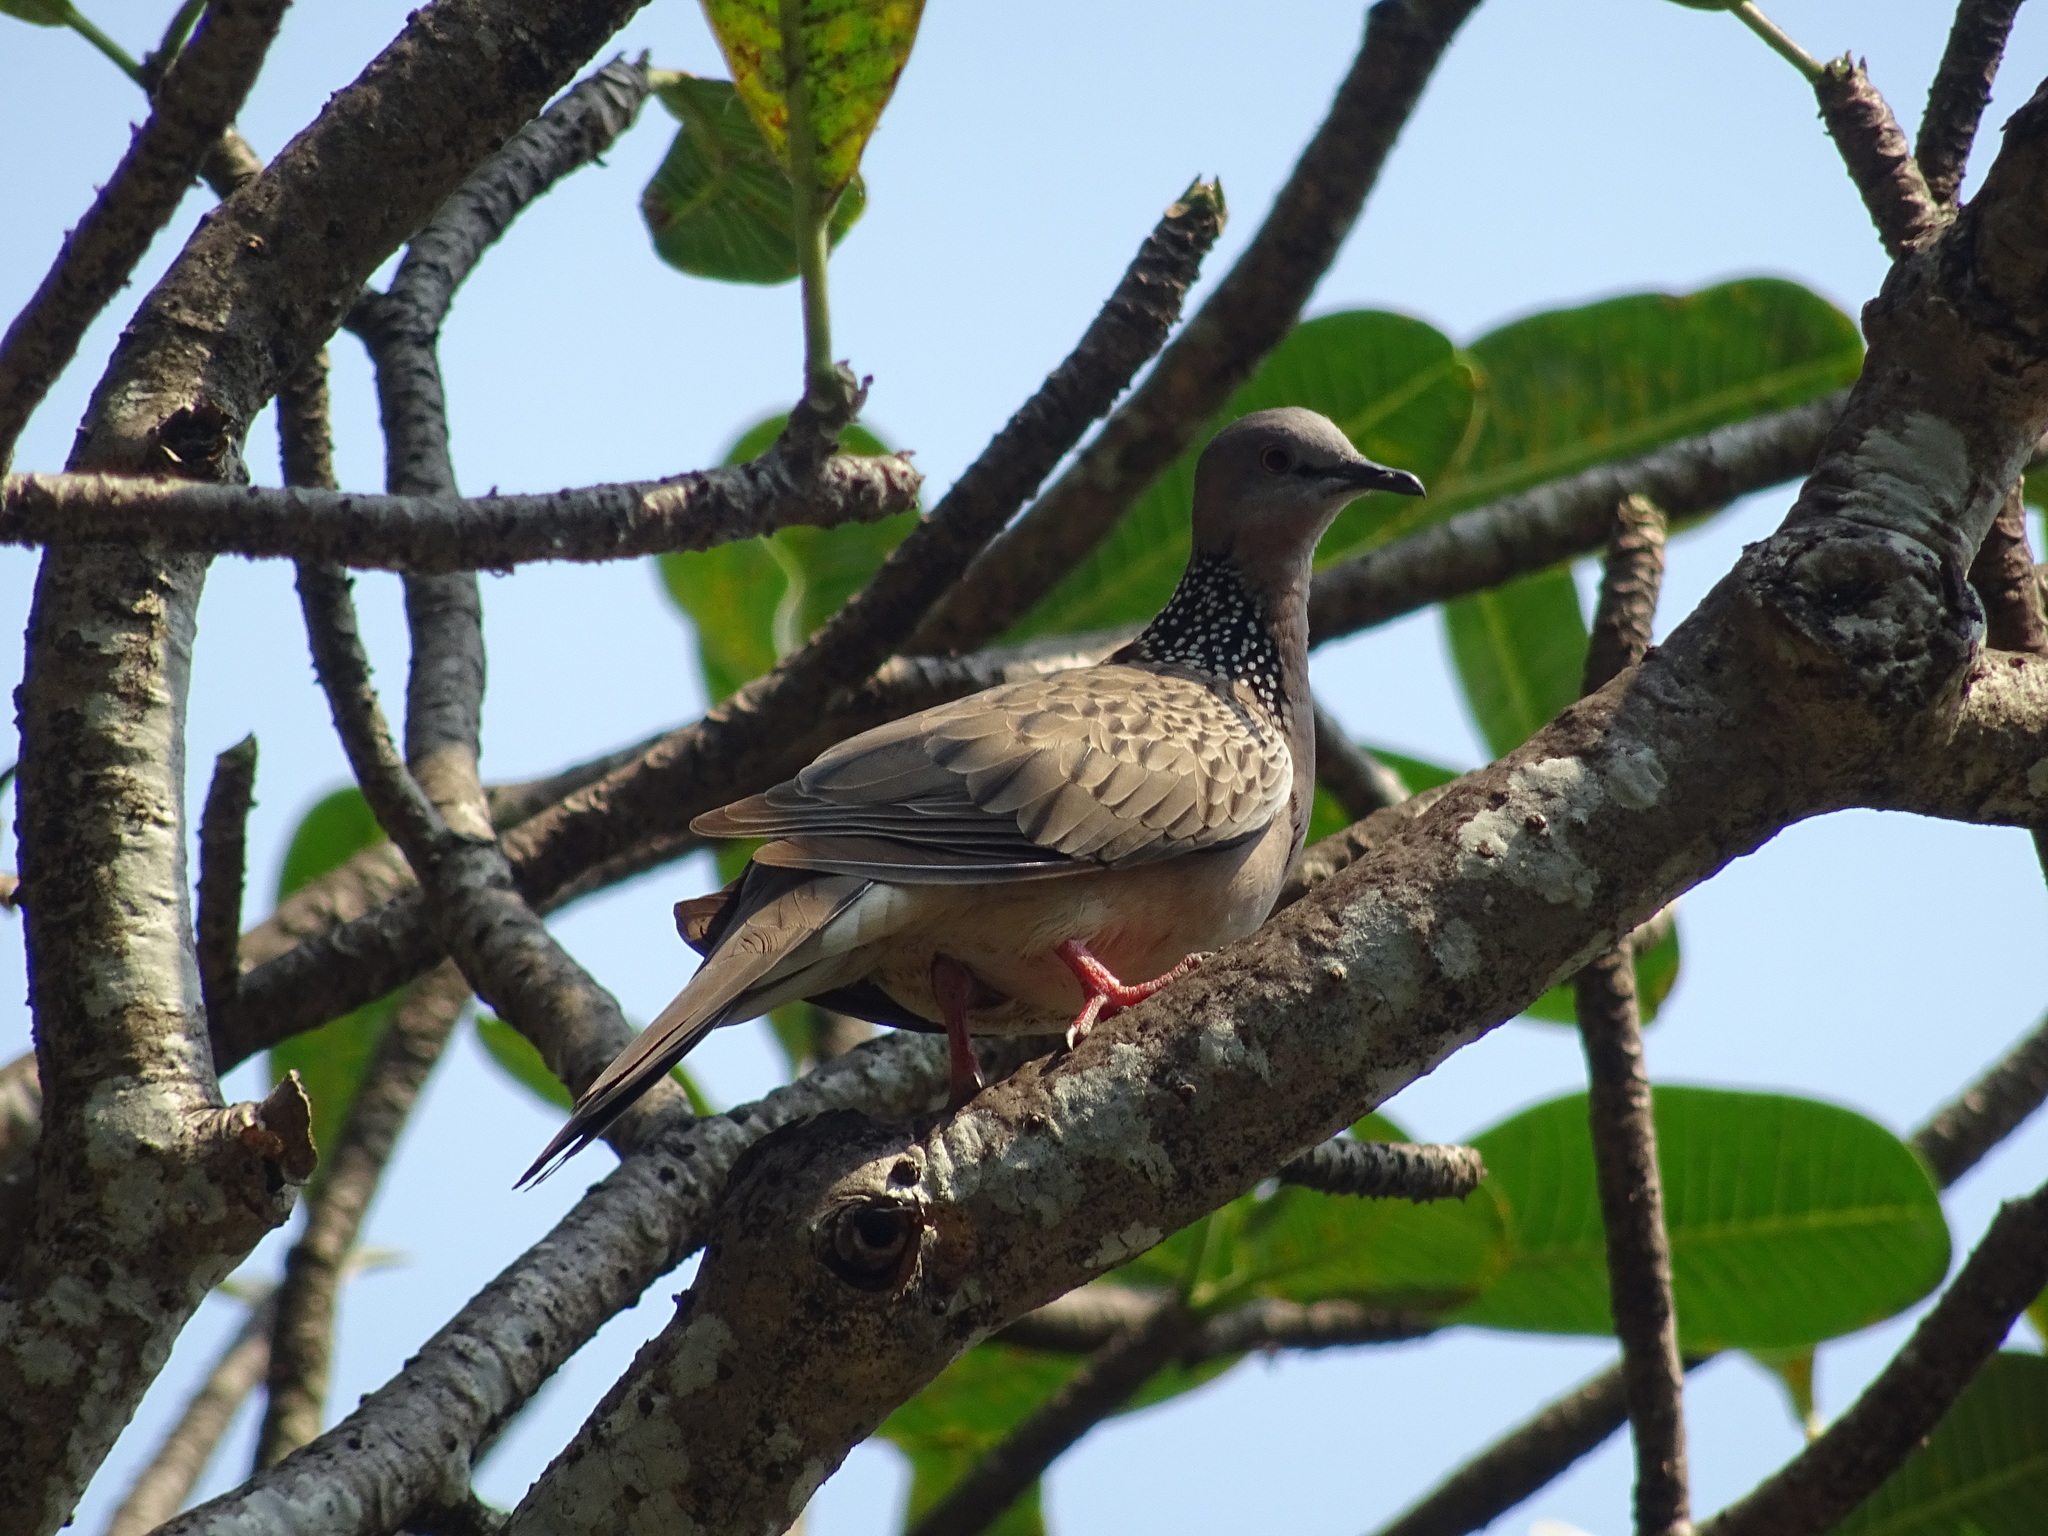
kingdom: Animalia
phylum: Chordata
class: Aves
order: Columbiformes
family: Columbidae
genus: Spilopelia
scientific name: Spilopelia chinensis
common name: Spotted dove
